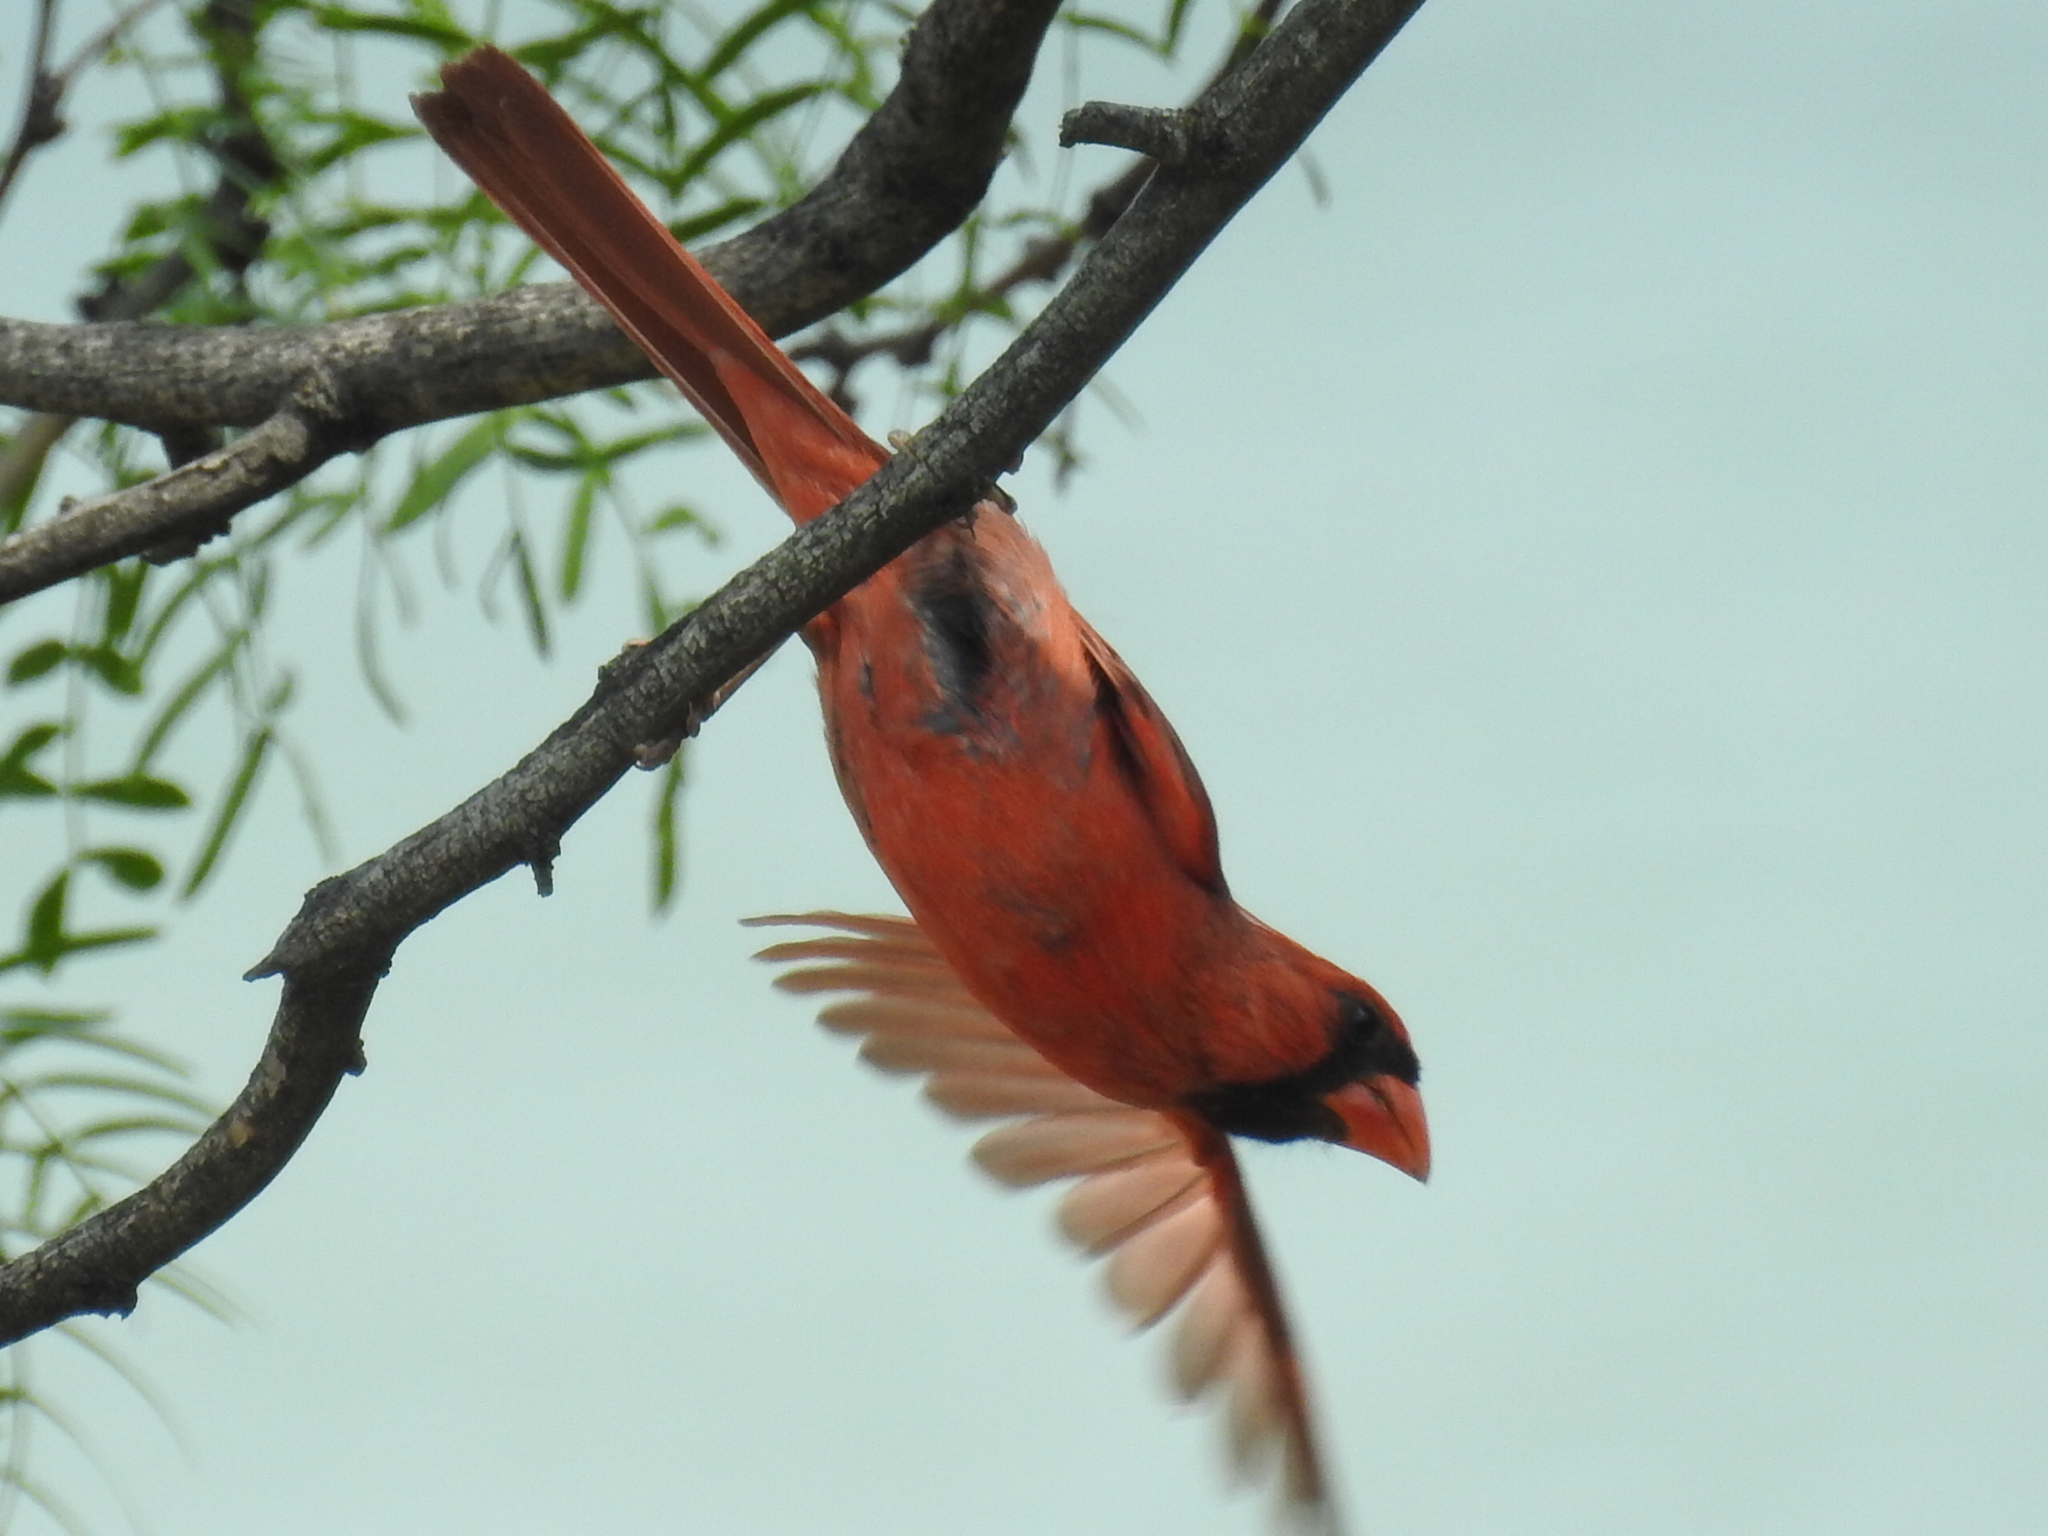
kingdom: Animalia
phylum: Chordata
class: Aves
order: Passeriformes
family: Cardinalidae
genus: Cardinalis
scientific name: Cardinalis cardinalis
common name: Northern cardinal
